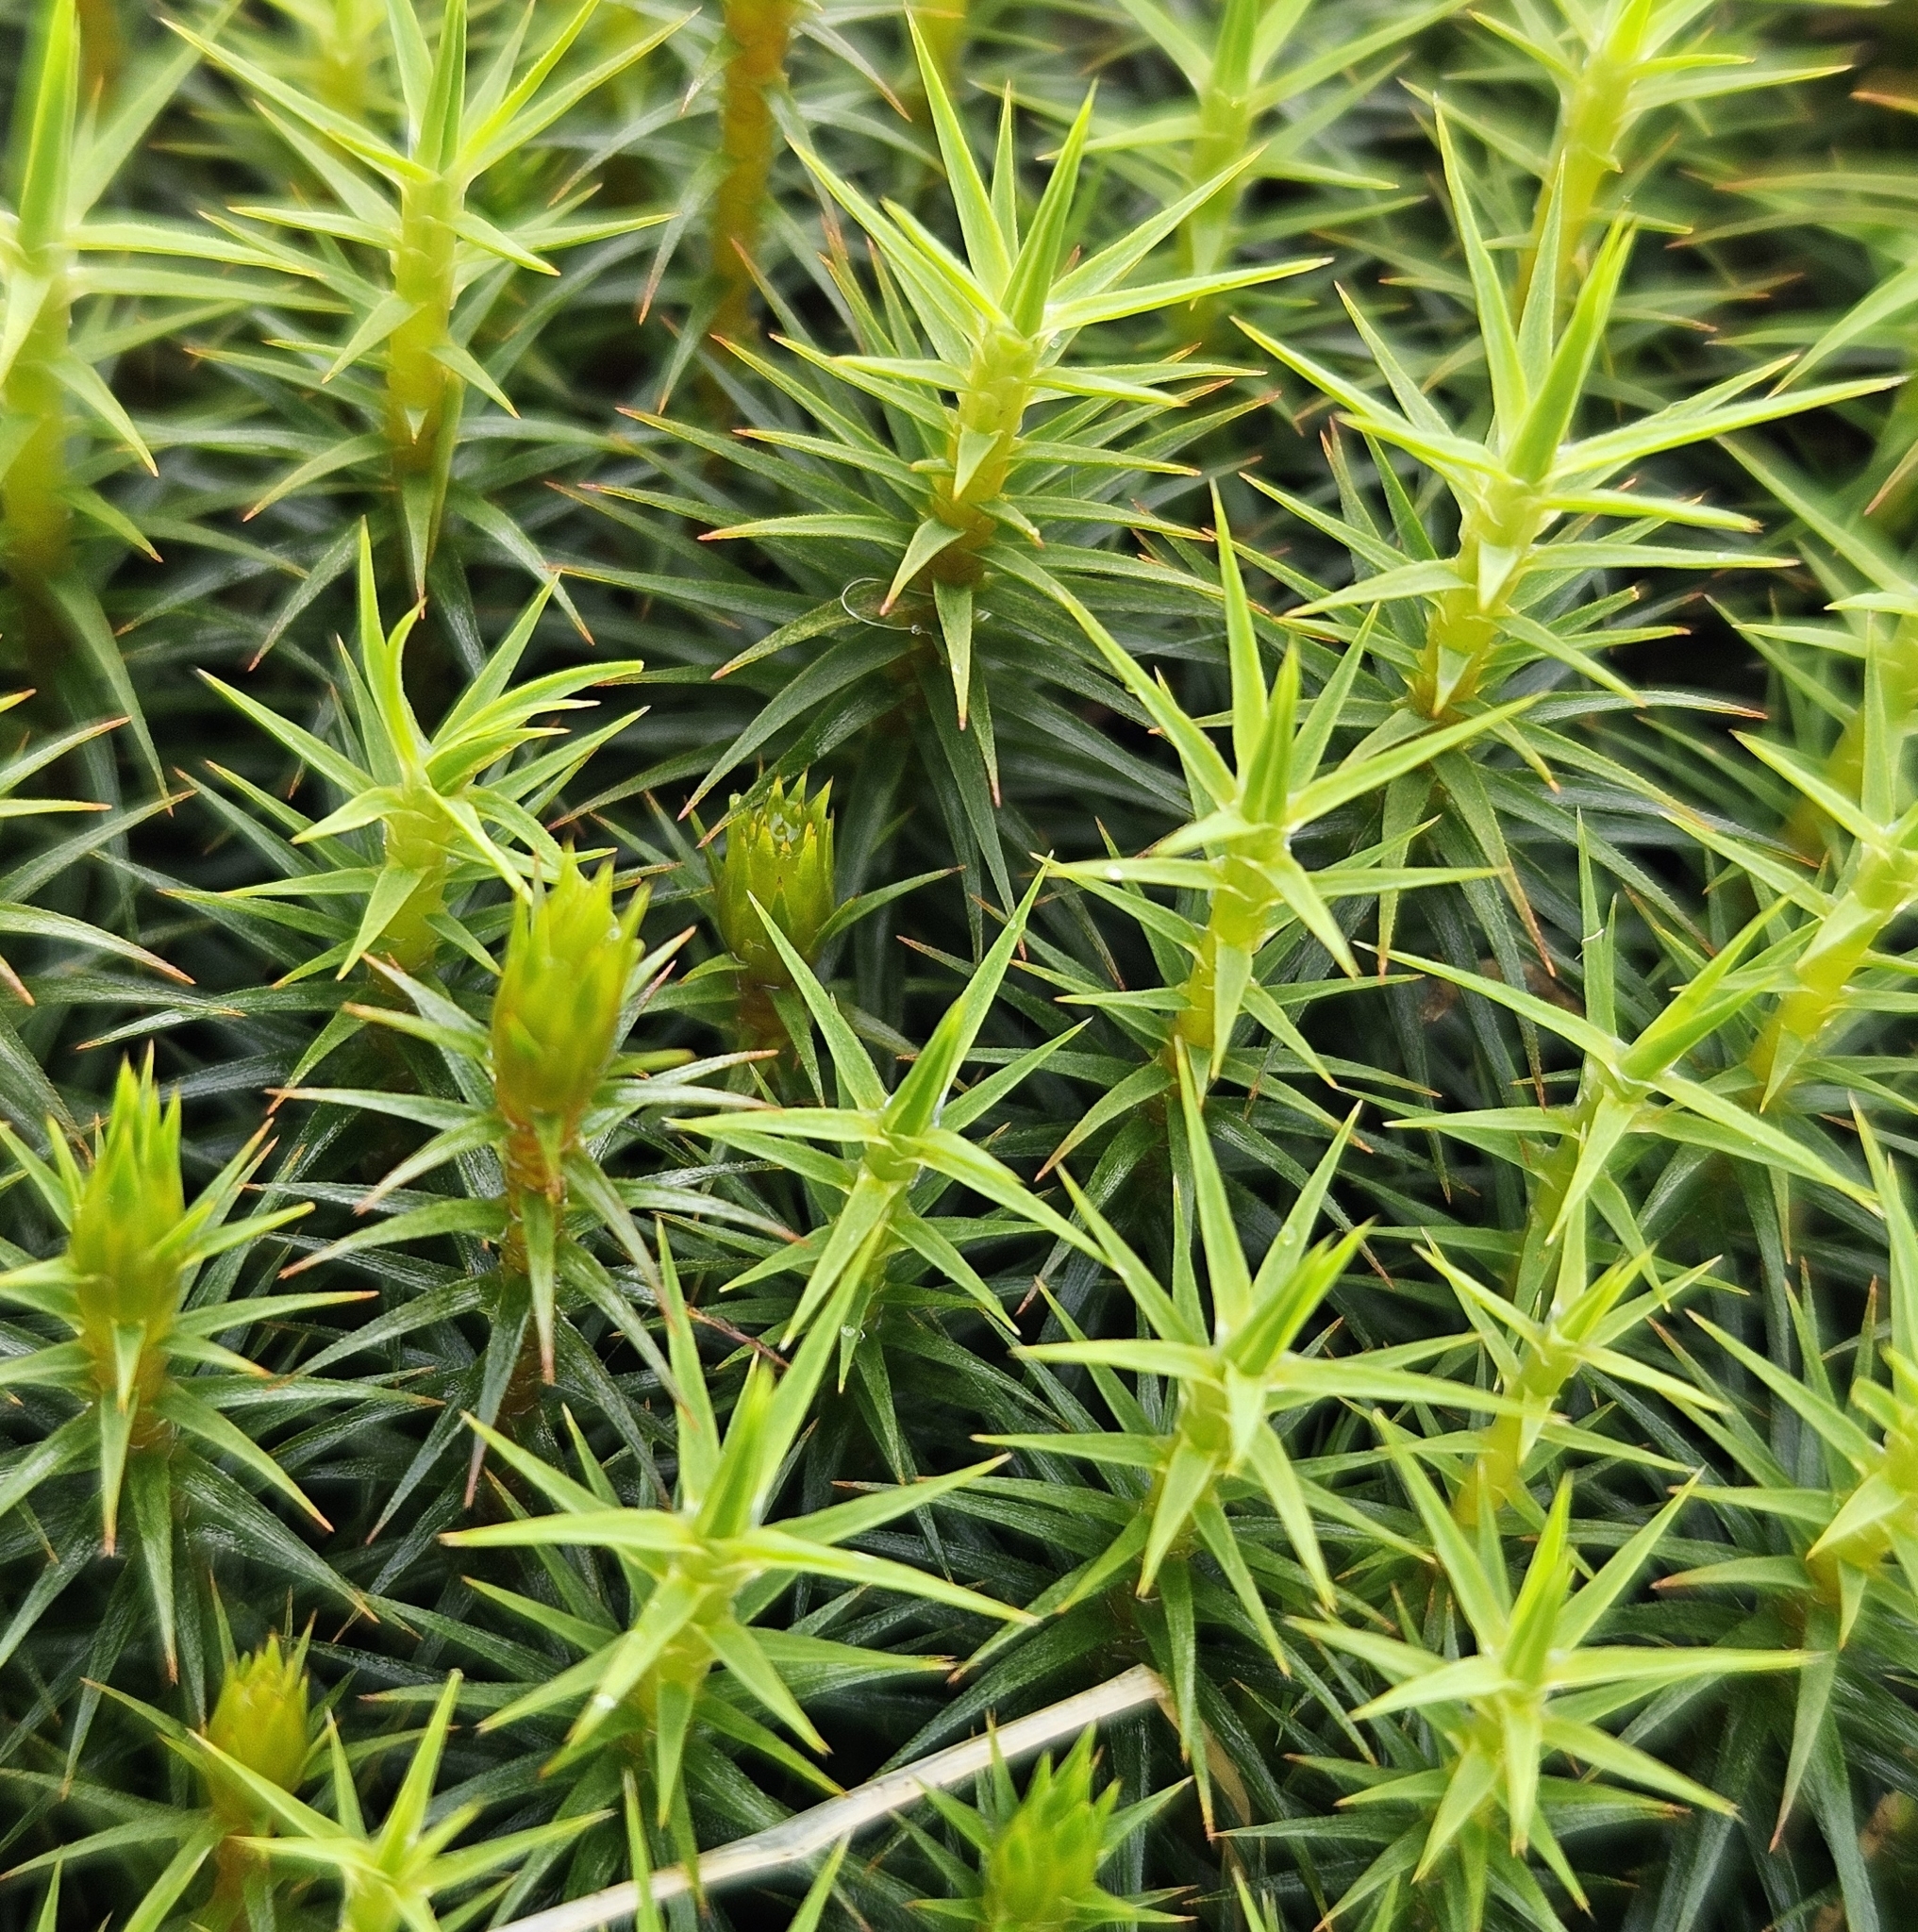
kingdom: Plantae
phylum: Bryophyta
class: Polytrichopsida
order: Polytrichales
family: Polytrichaceae
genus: Polytrichum
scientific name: Polytrichum commune
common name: Common haircap
